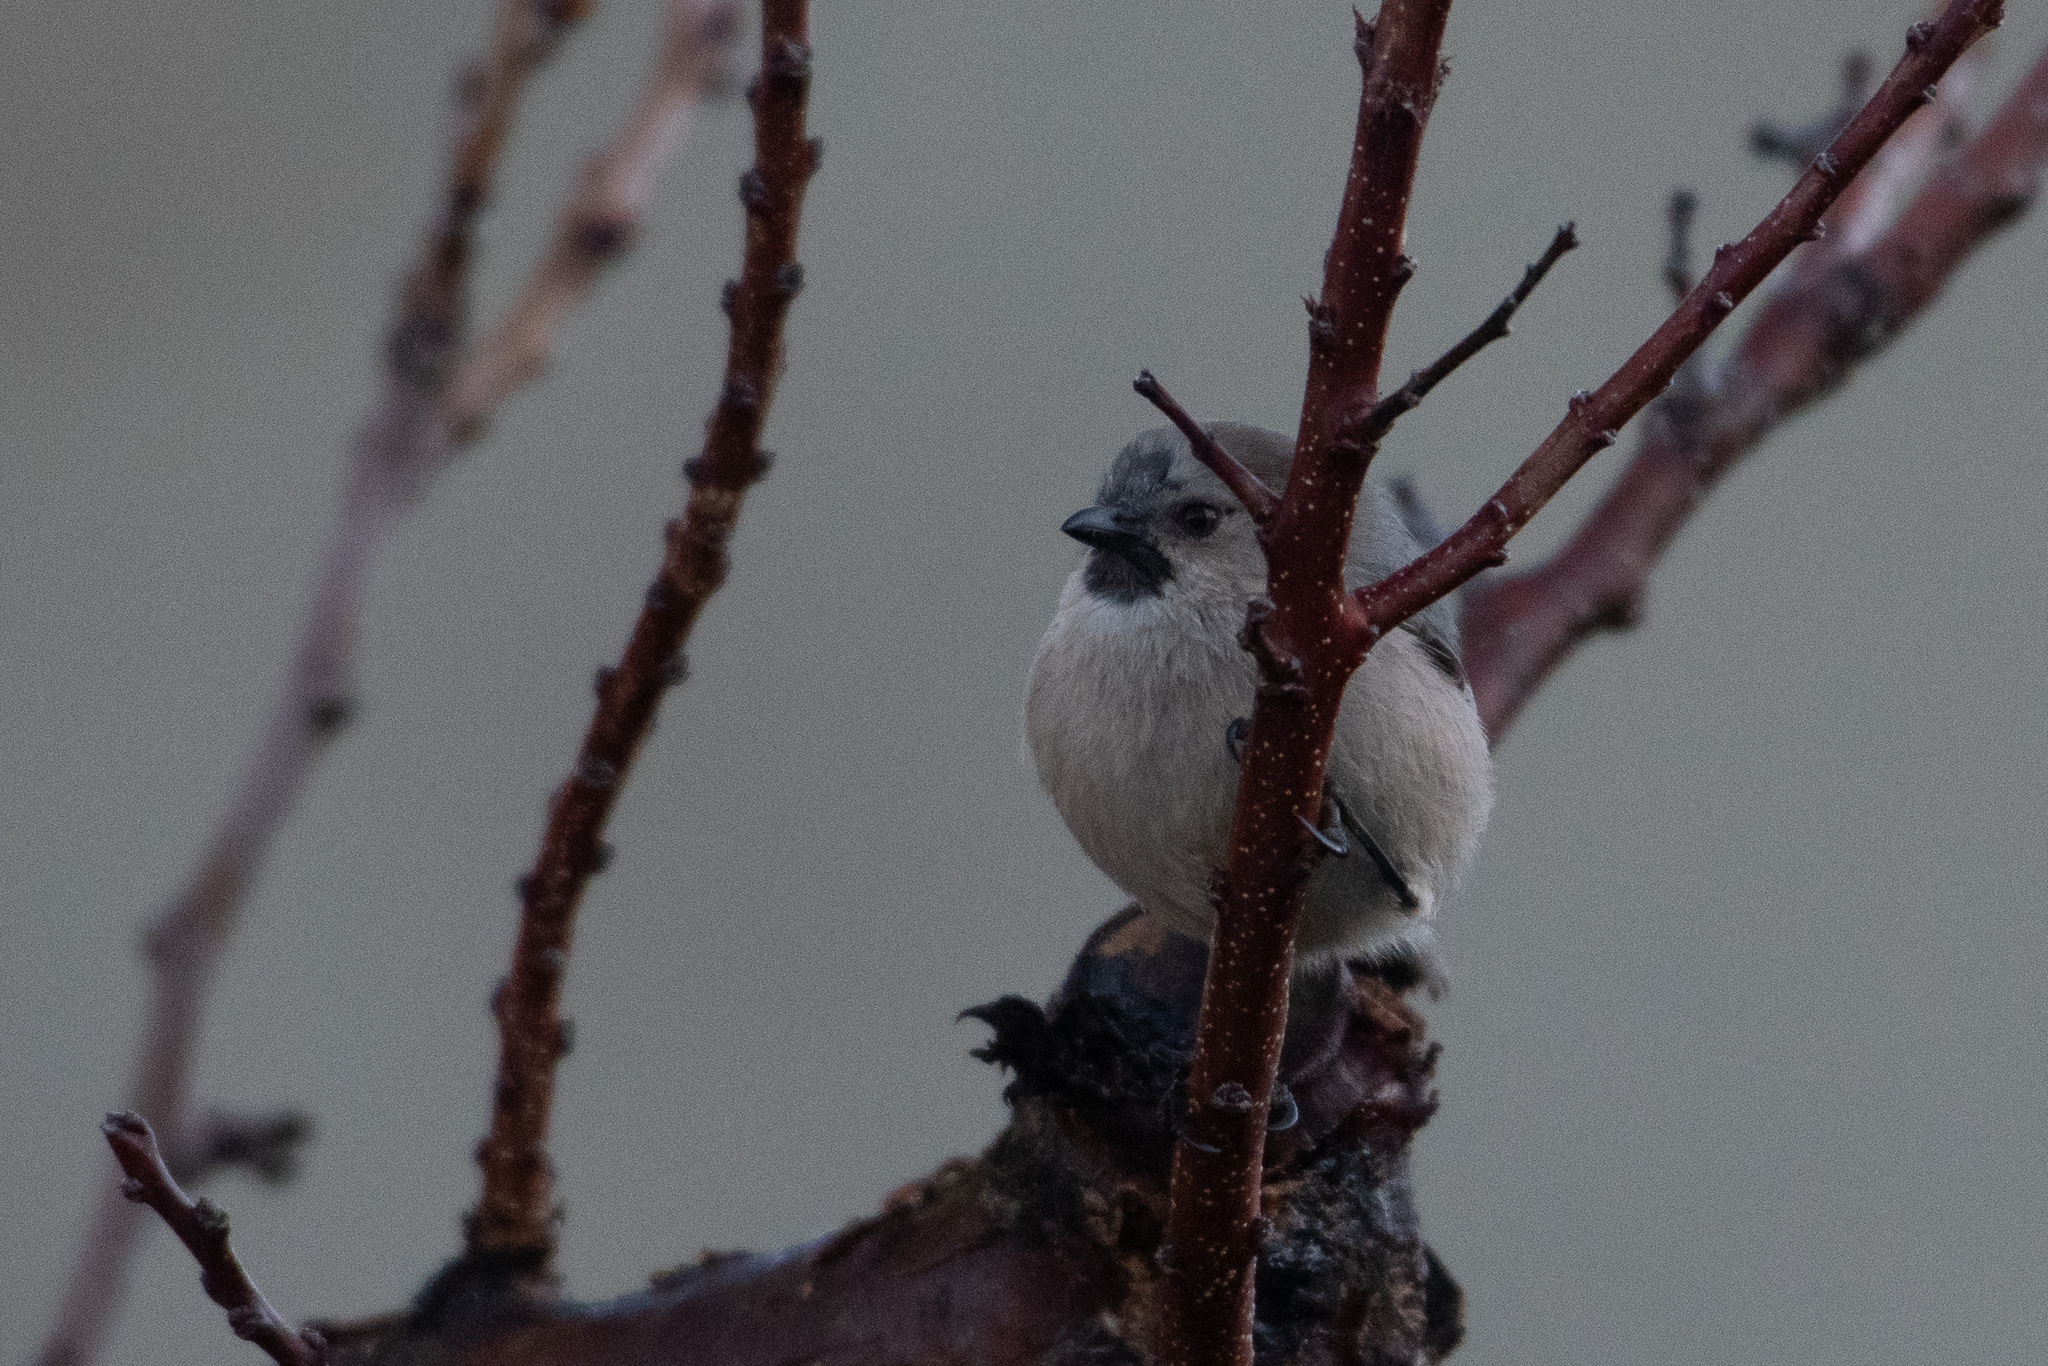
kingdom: Animalia
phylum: Chordata
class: Aves
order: Passeriformes
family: Aegithalidae
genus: Psaltriparus
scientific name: Psaltriparus minimus
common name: American bushtit
